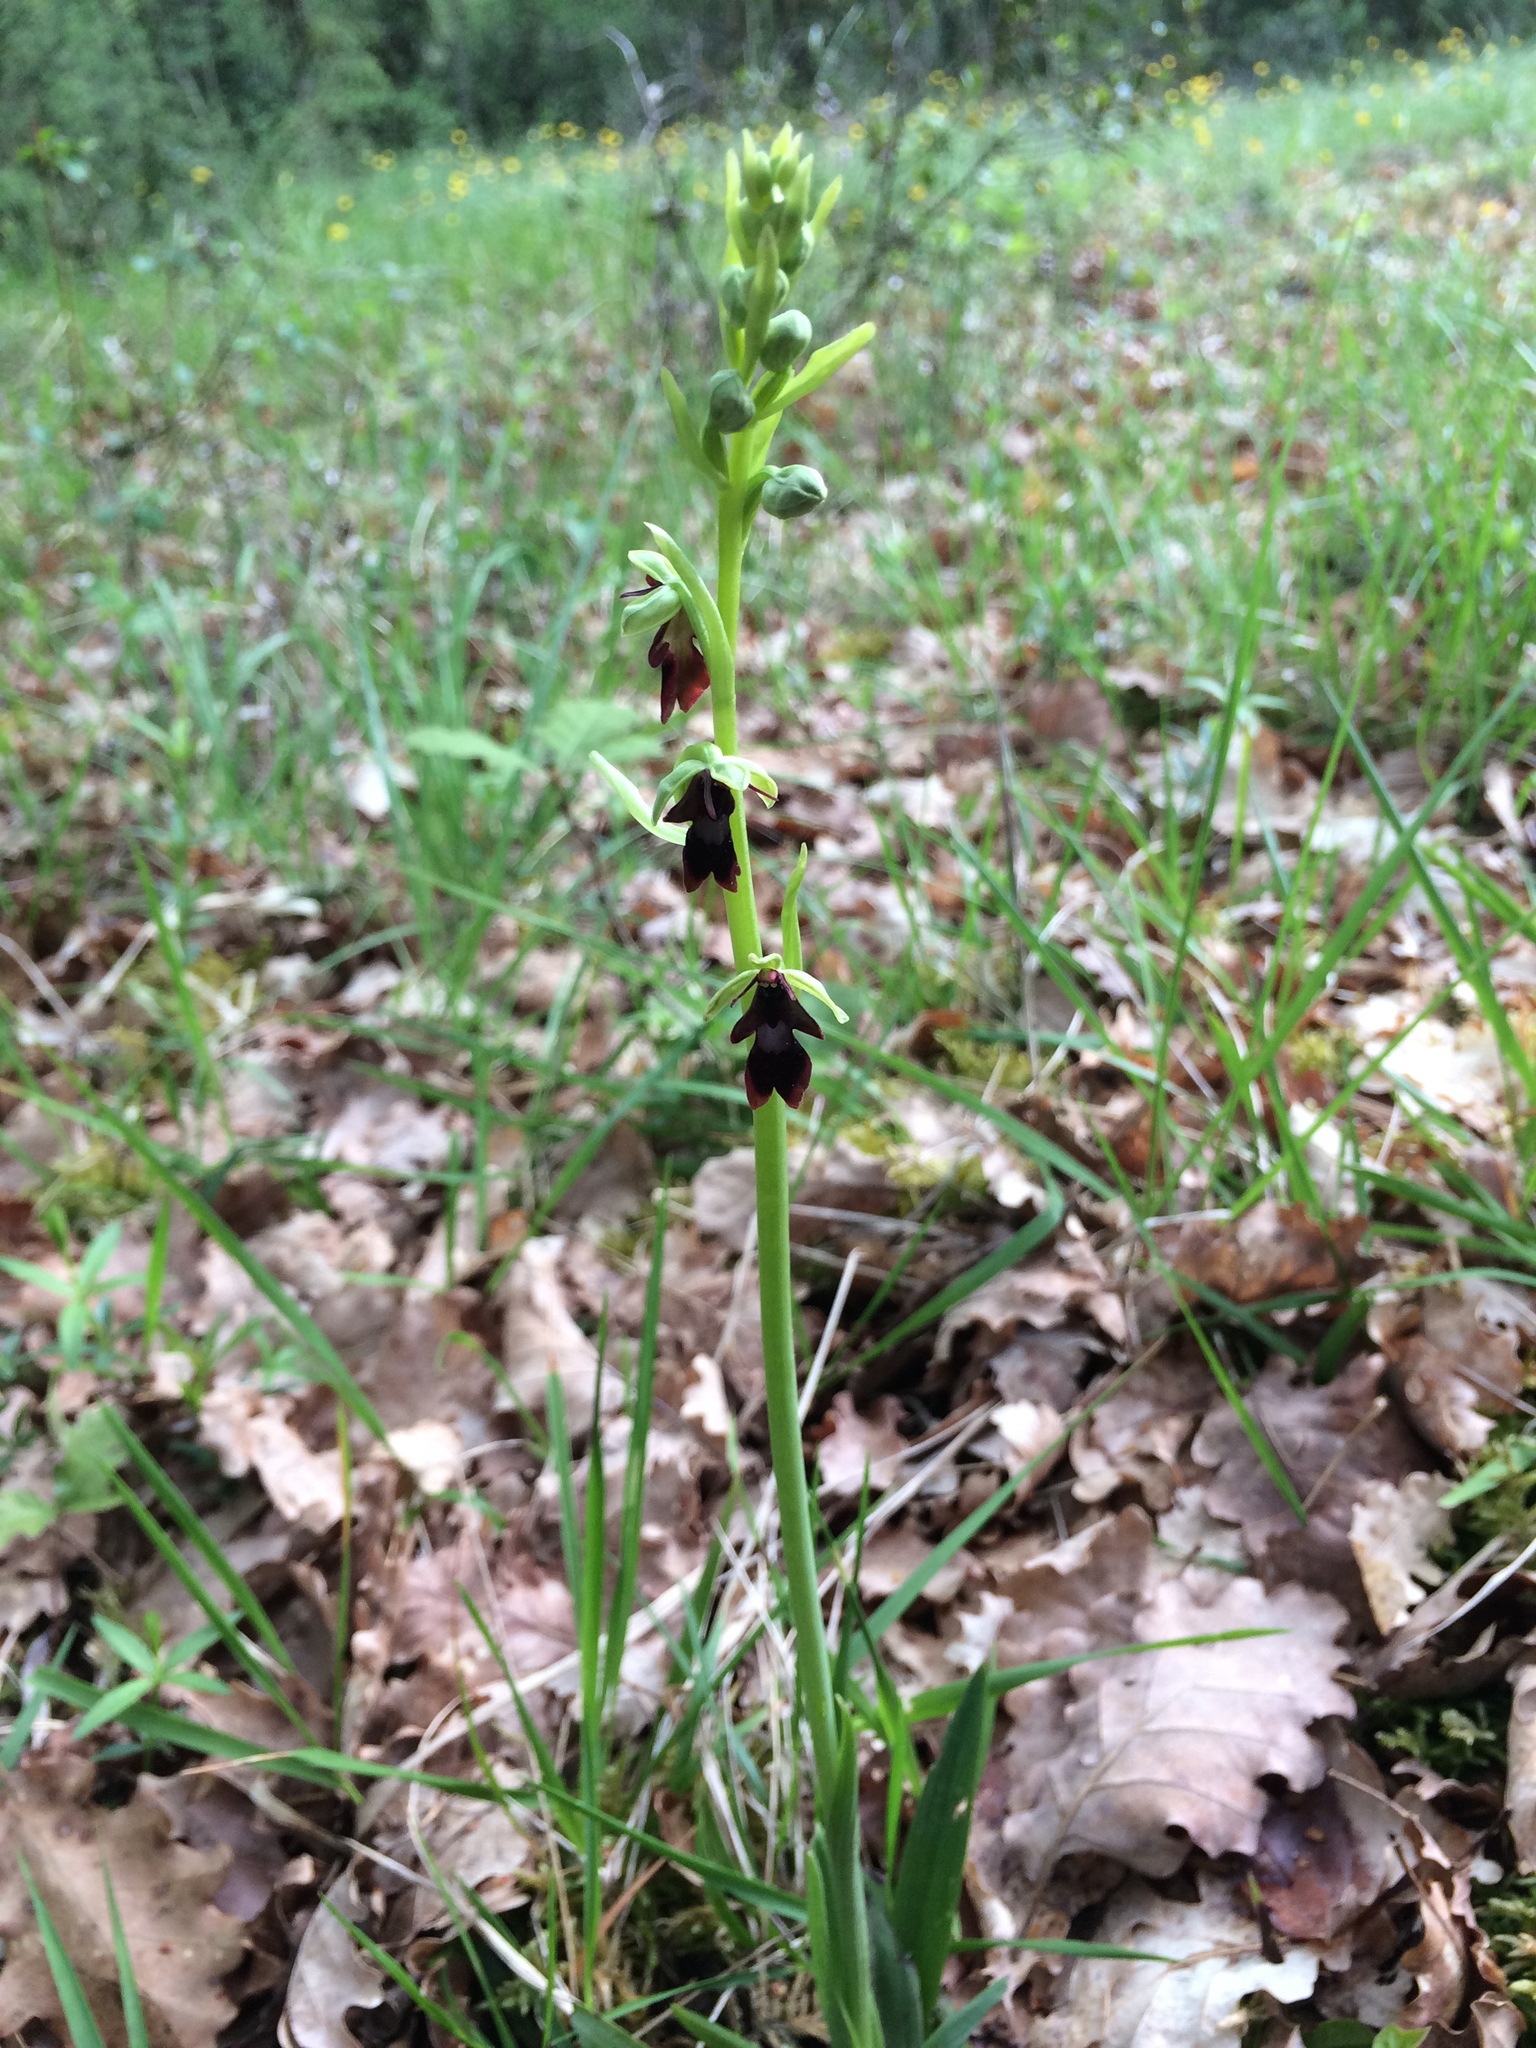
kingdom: Plantae
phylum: Tracheophyta
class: Liliopsida
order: Asparagales
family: Orchidaceae
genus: Ophrys
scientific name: Ophrys insectifera
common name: Fly orchid
